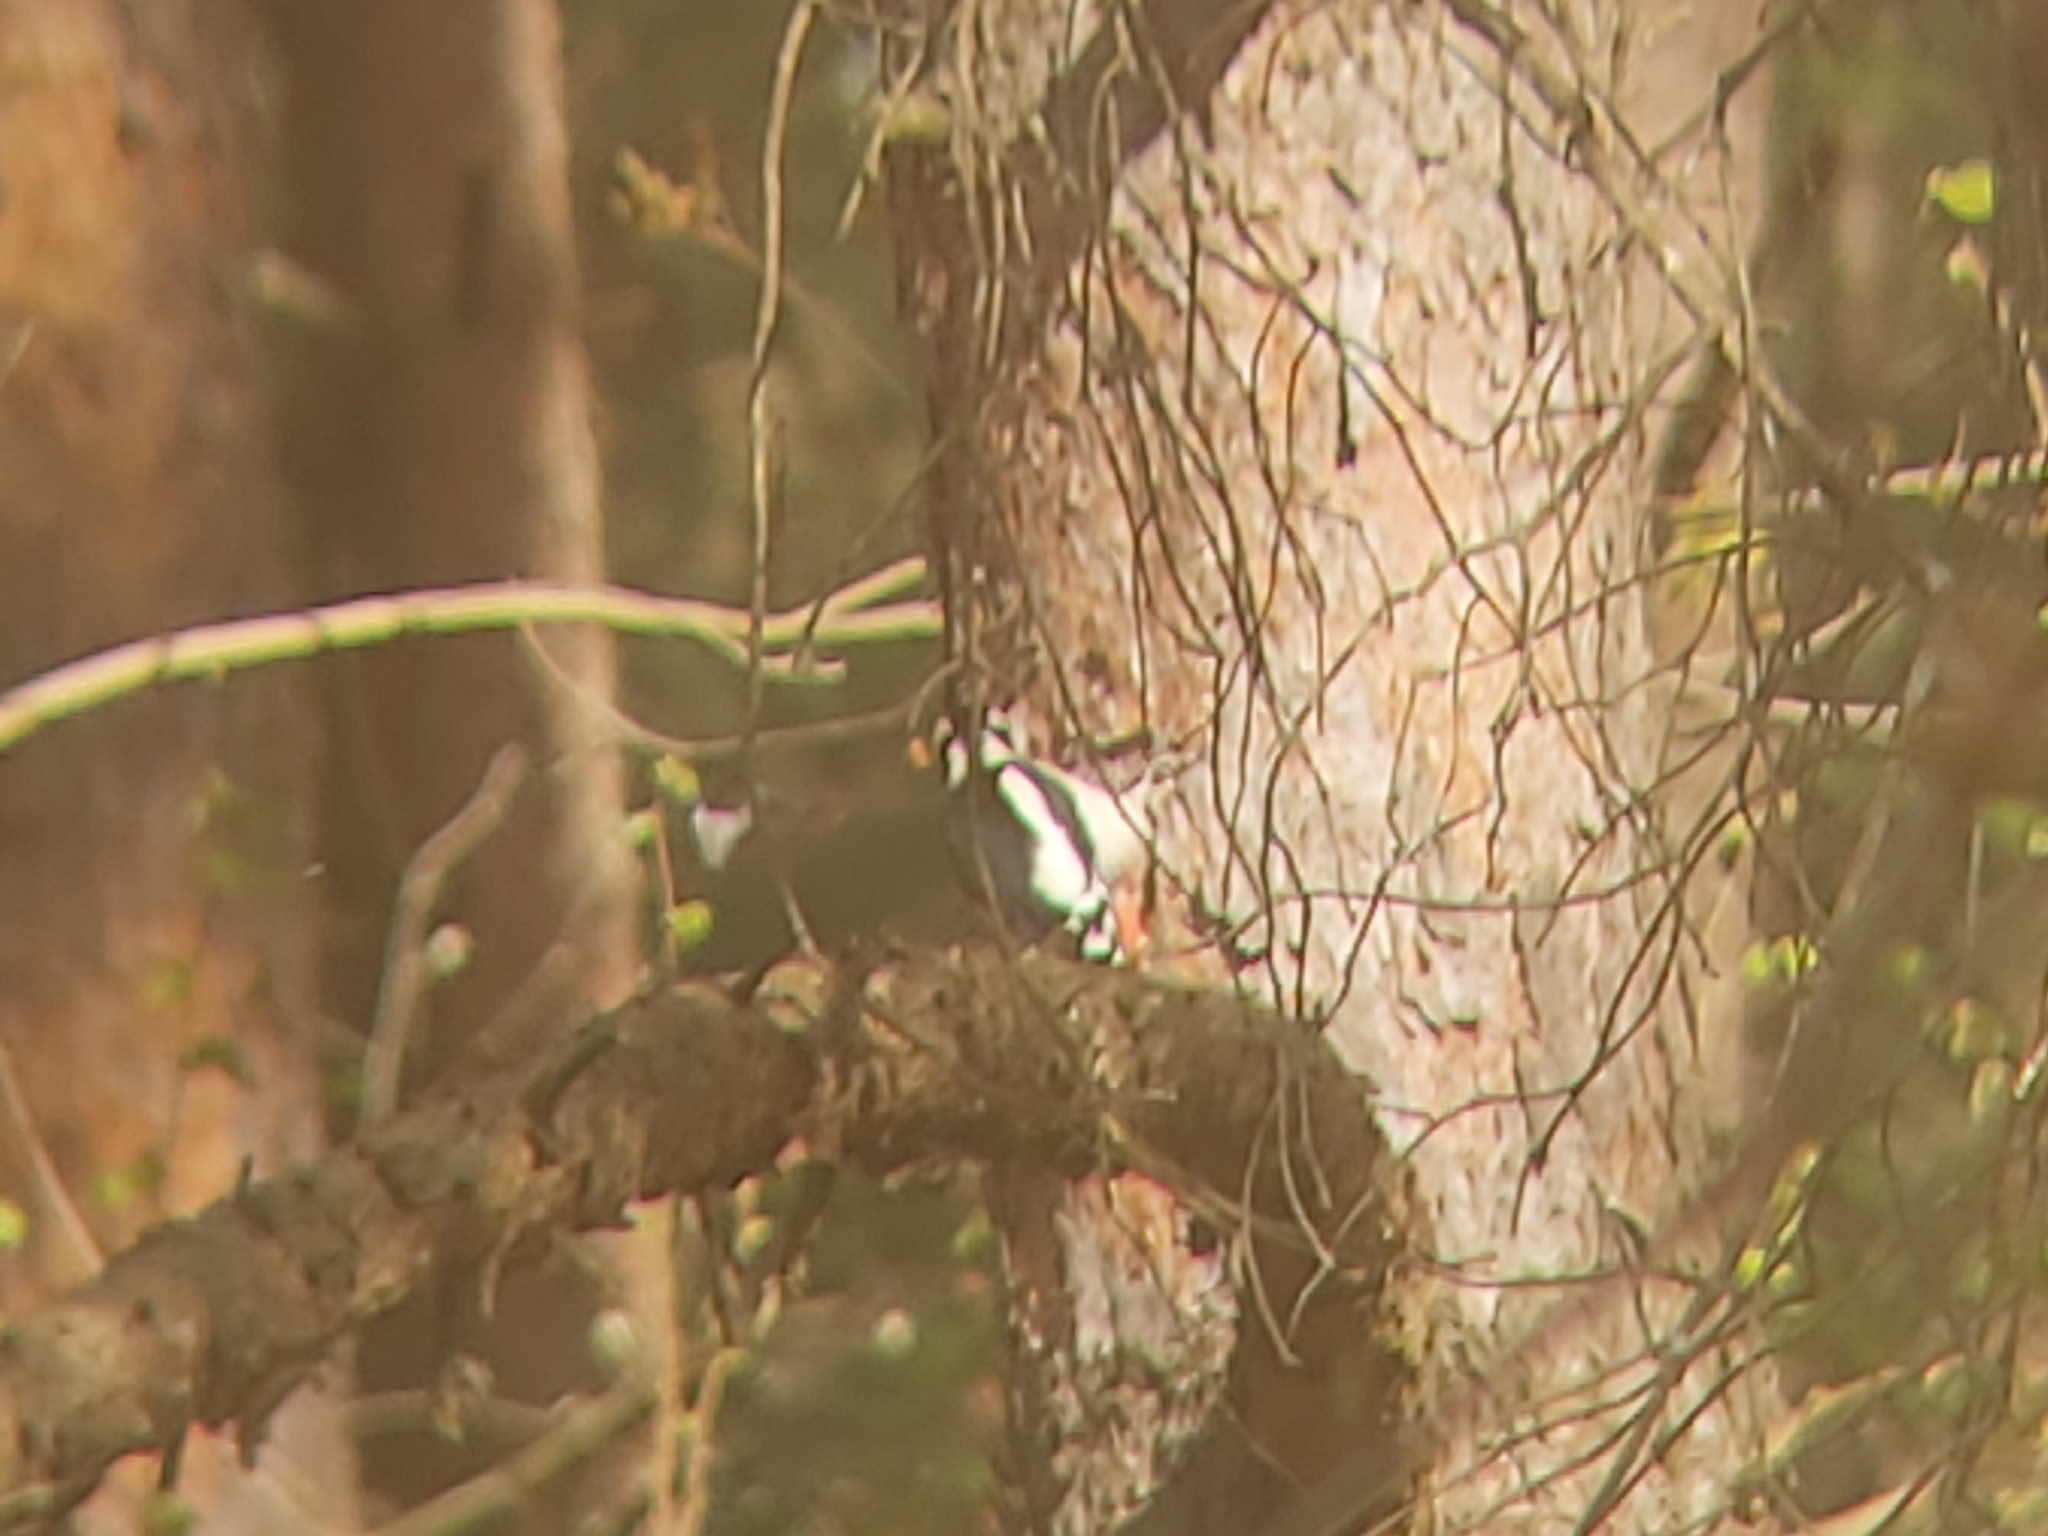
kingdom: Animalia
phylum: Chordata
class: Aves
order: Piciformes
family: Picidae
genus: Dendrocopos
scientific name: Dendrocopos major
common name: Great spotted woodpecker
